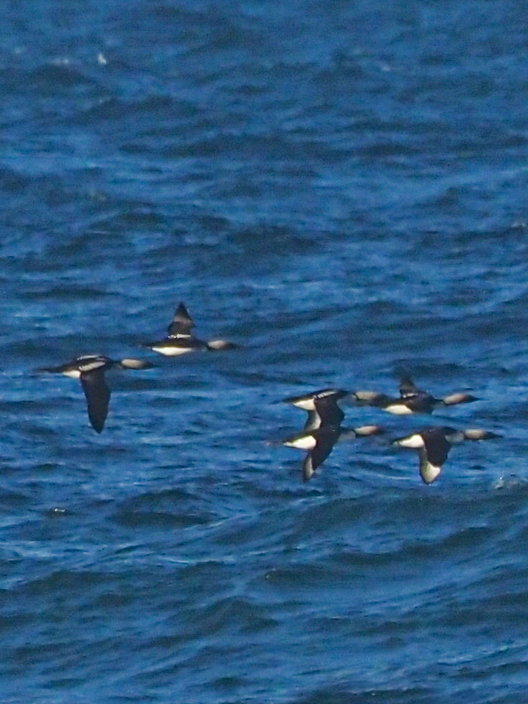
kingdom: Animalia
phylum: Chordata
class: Aves
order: Gaviiformes
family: Gaviidae
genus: Gavia
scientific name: Gavia pacifica
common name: Pacific loon
